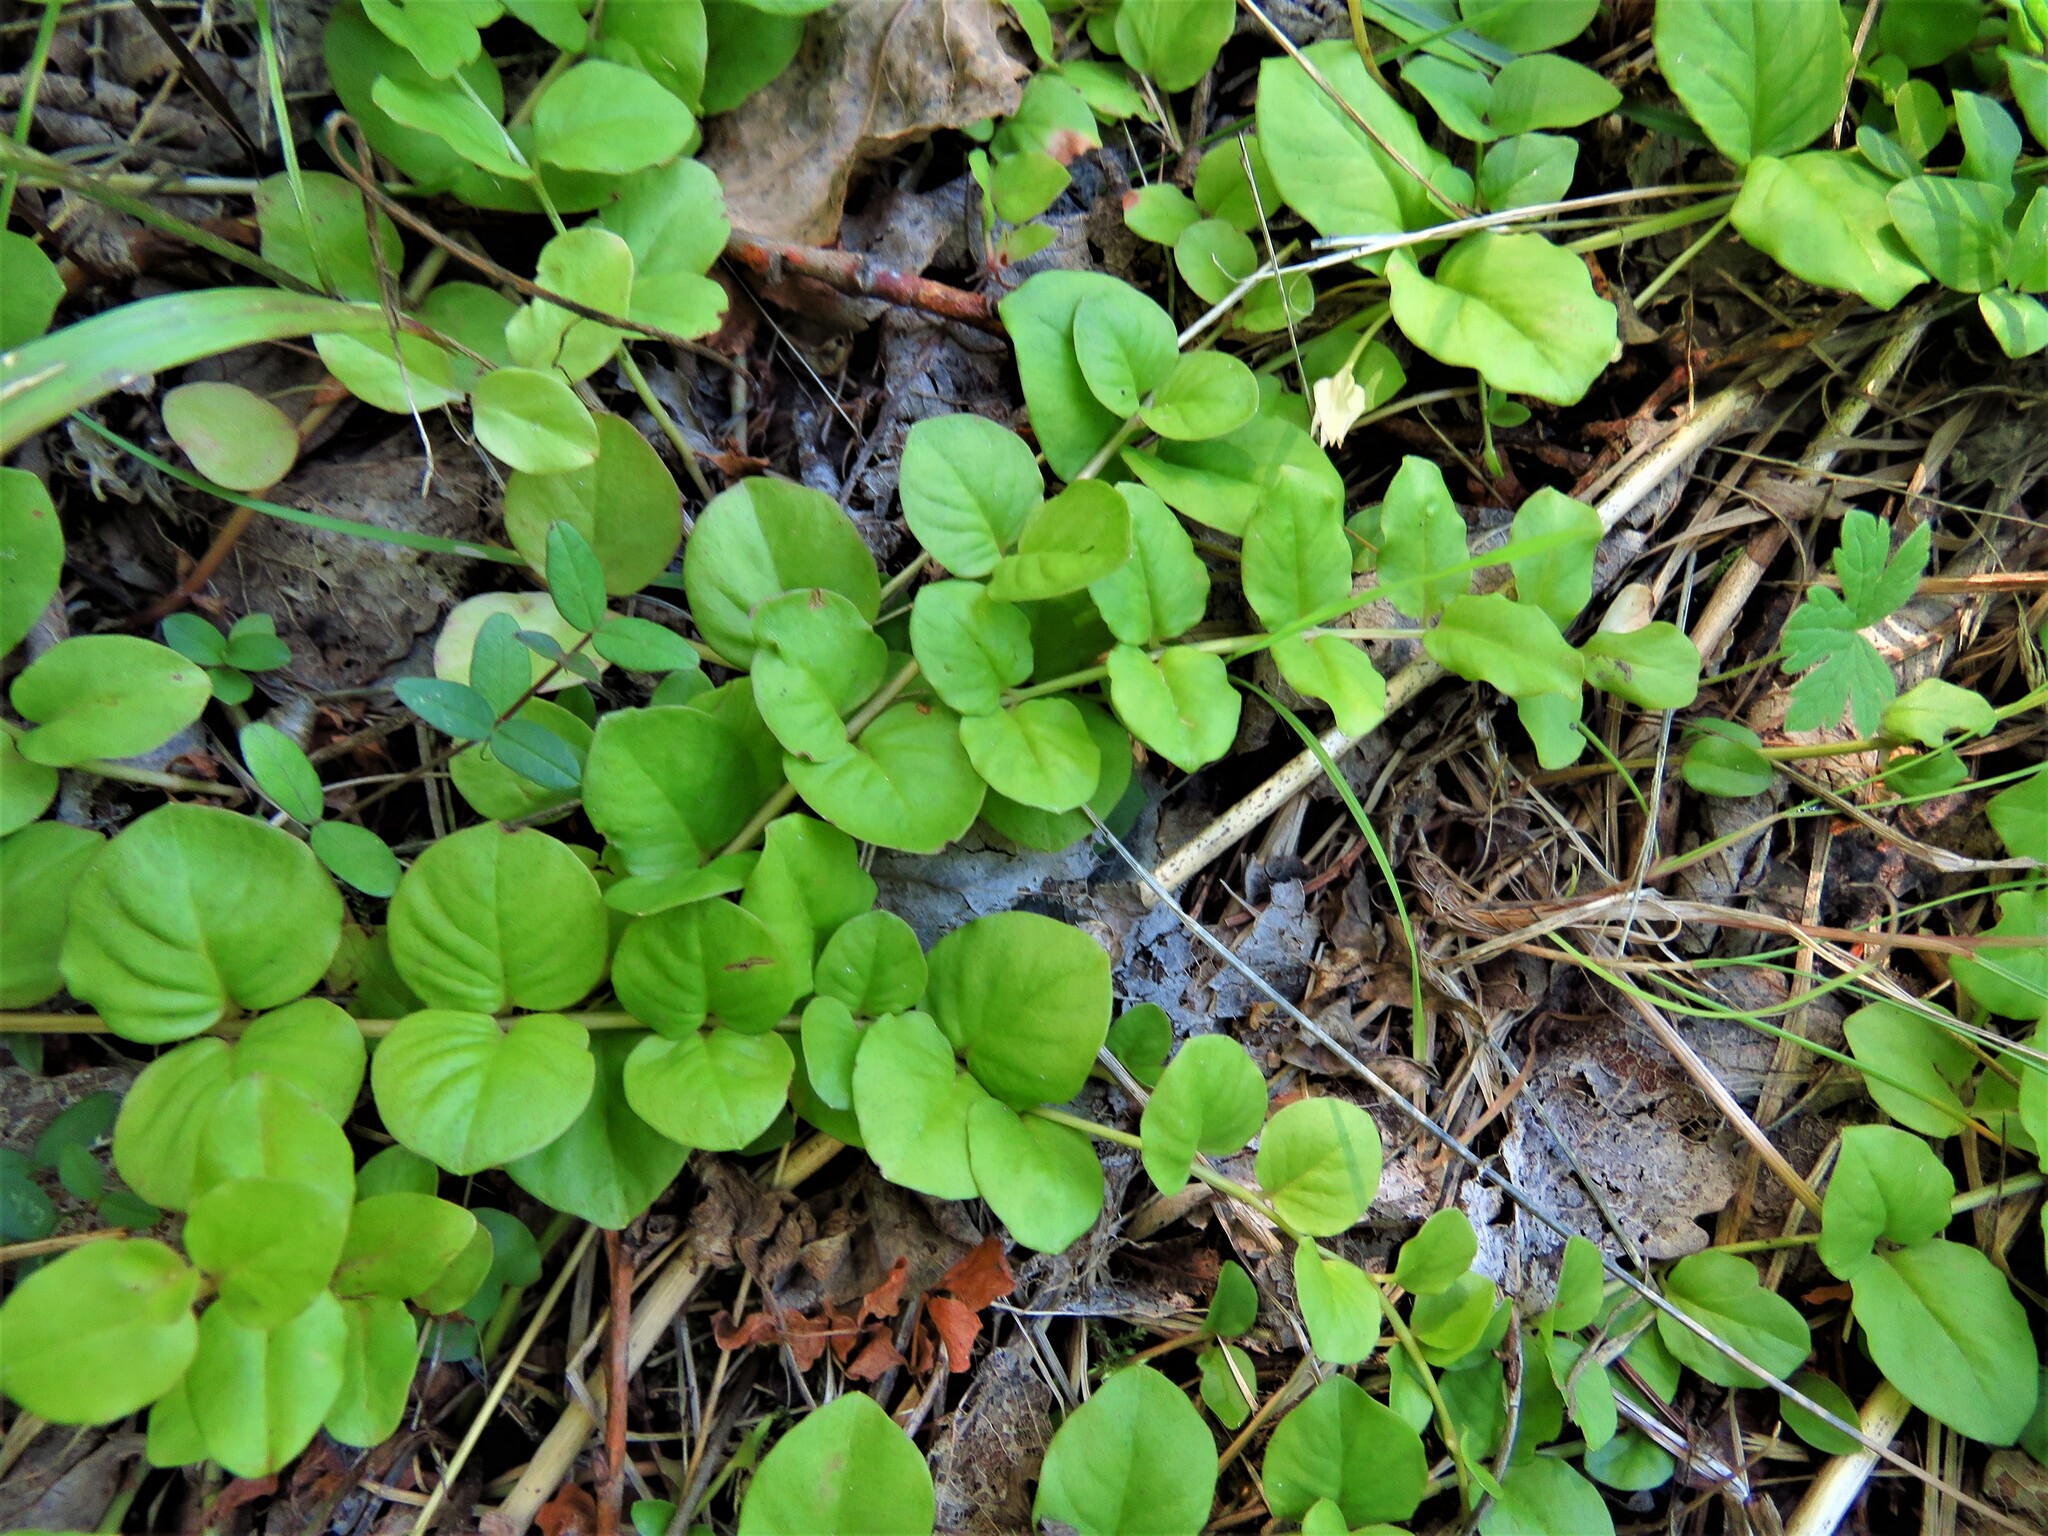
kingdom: Plantae
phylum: Tracheophyta
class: Magnoliopsida
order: Ericales
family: Primulaceae
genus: Lysimachia
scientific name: Lysimachia nummularia
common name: Moneywort
